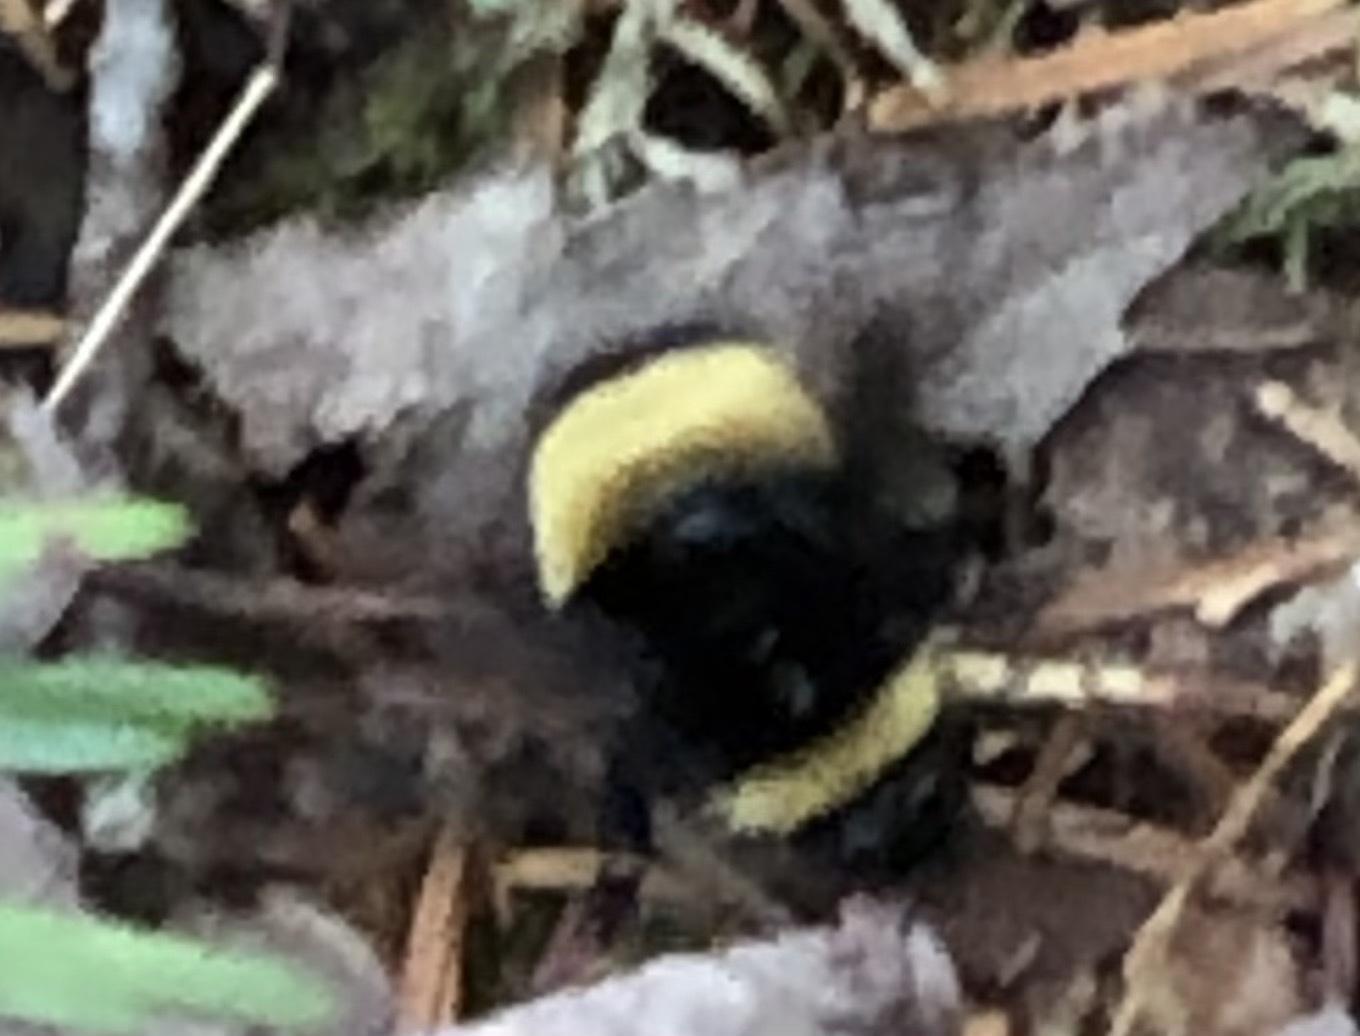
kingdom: Animalia
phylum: Arthropoda
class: Insecta
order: Hymenoptera
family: Apidae
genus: Bombus
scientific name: Bombus terricola
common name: Yellow-banded bumble bee
